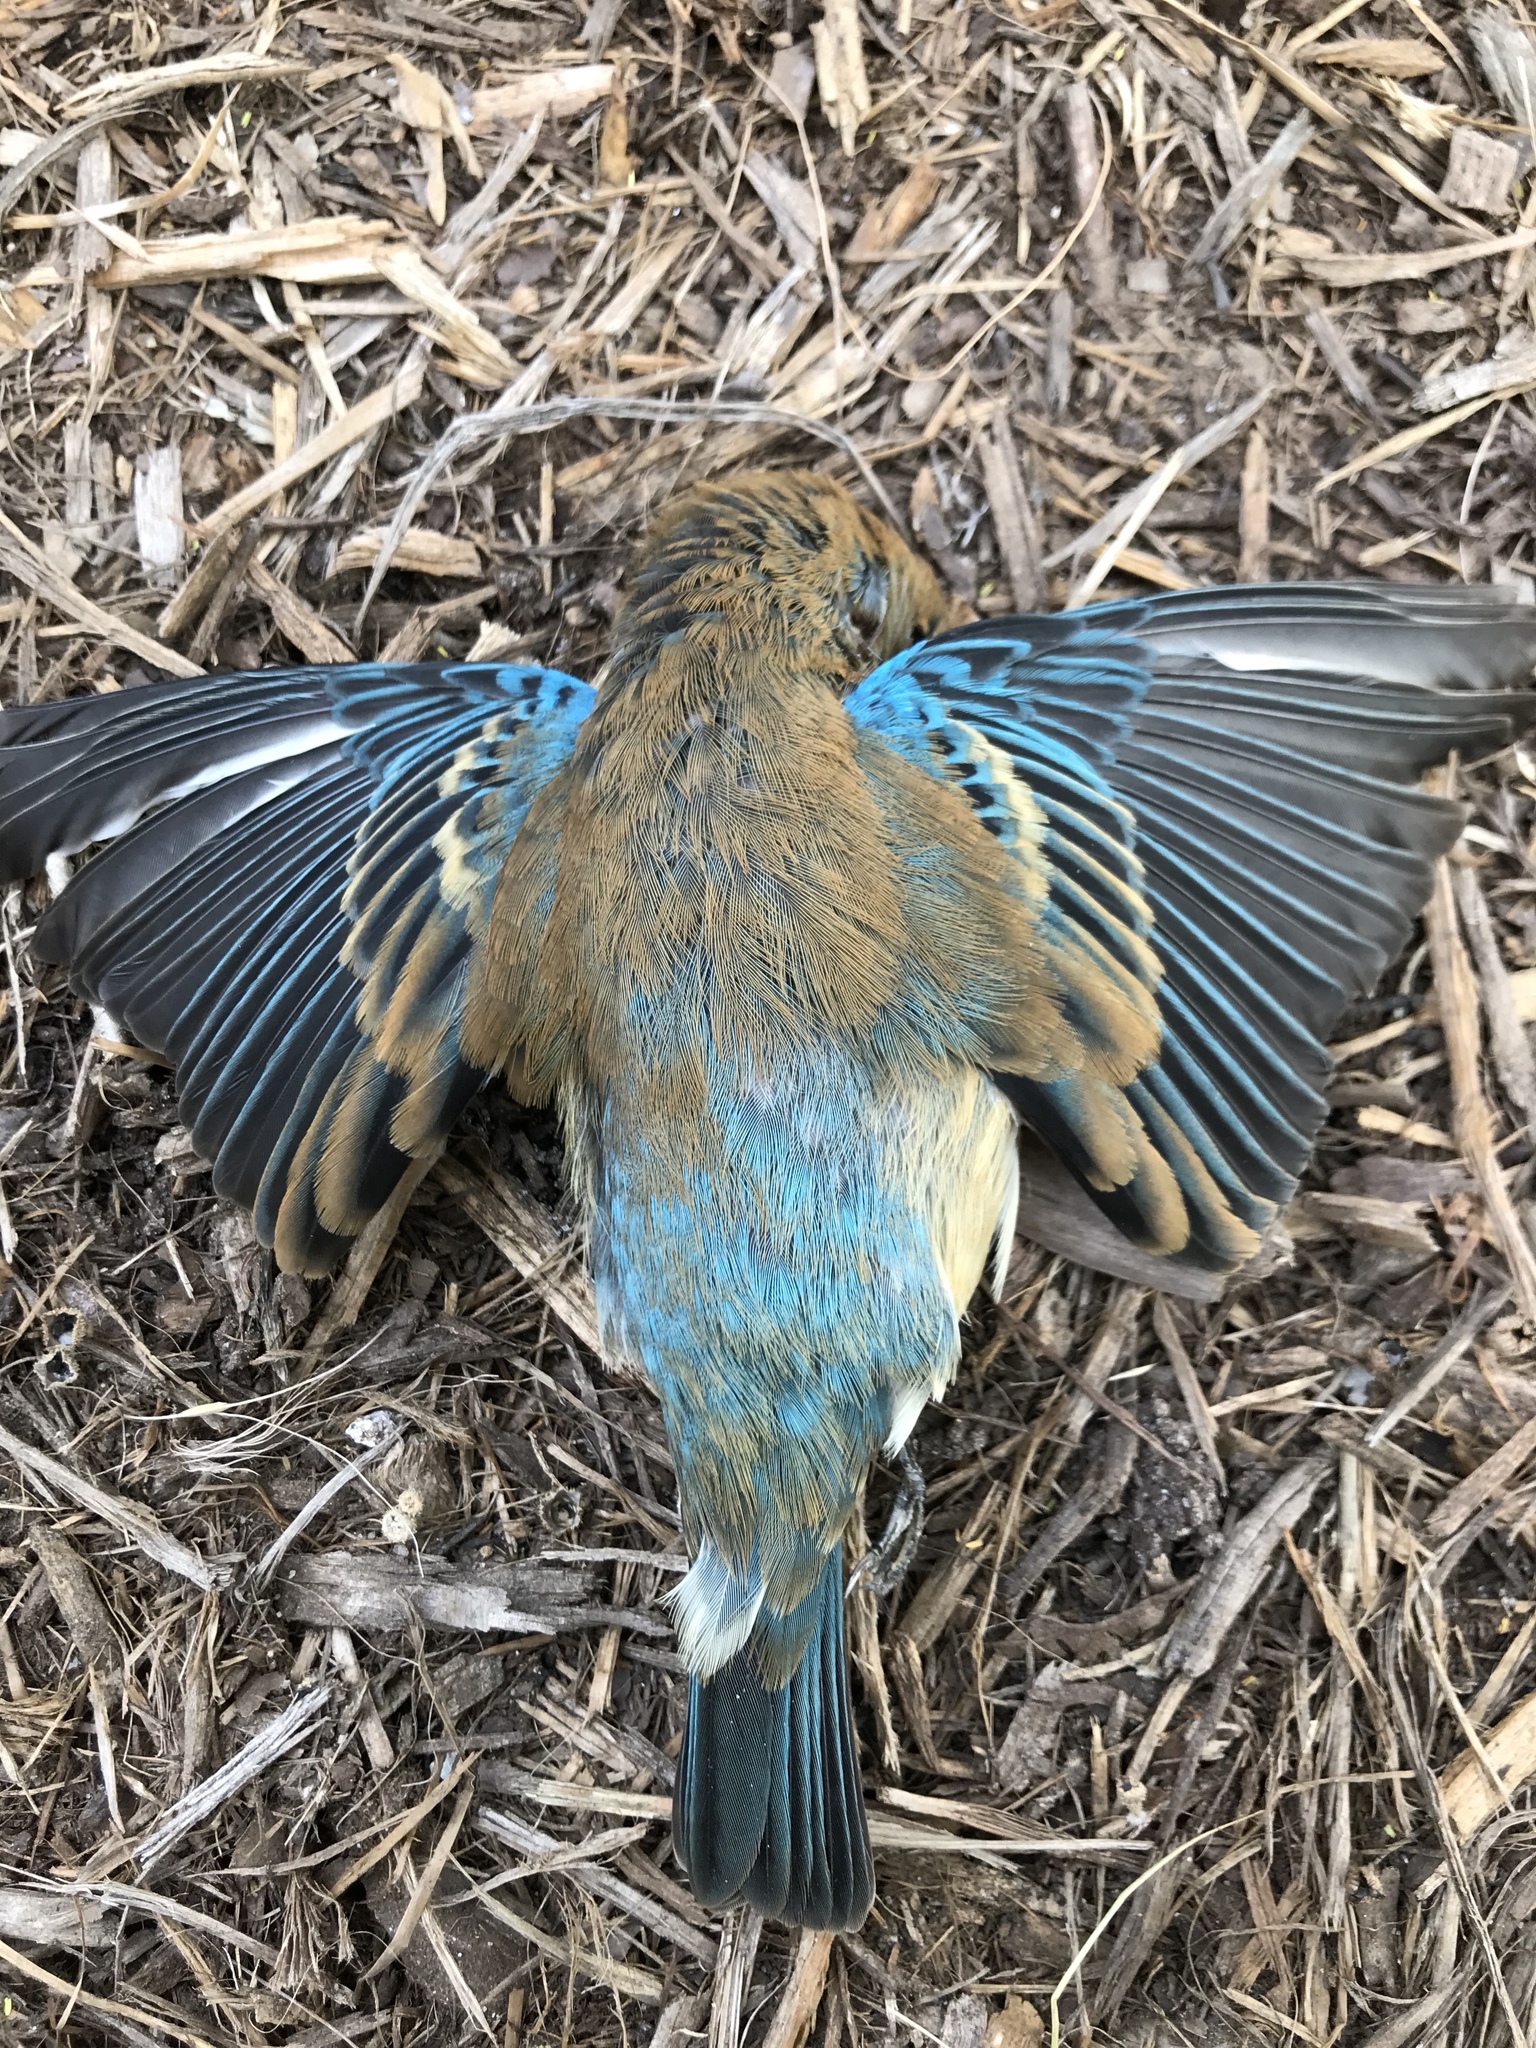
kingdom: Animalia
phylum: Chordata
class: Aves
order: Passeriformes
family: Cardinalidae
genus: Passerina
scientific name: Passerina cyanea
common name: Indigo bunting
